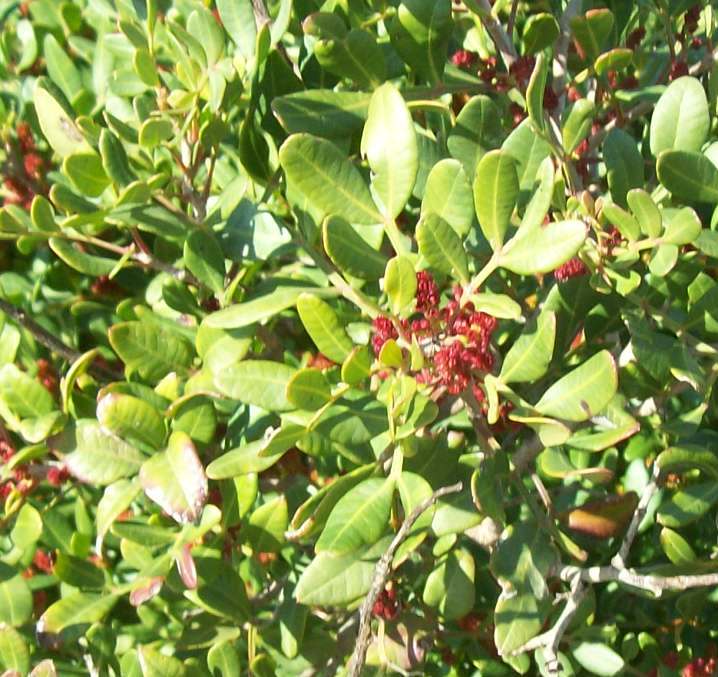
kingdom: Plantae
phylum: Tracheophyta
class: Magnoliopsida
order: Sapindales
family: Anacardiaceae
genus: Pistacia
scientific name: Pistacia lentiscus
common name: Lentisk
